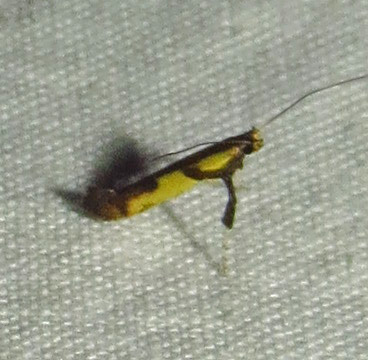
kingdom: Animalia
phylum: Arthropoda
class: Insecta
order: Lepidoptera
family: Gracillariidae
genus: Caloptilia
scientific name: Caloptilia blandella
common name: Walnut caloptilia moth
